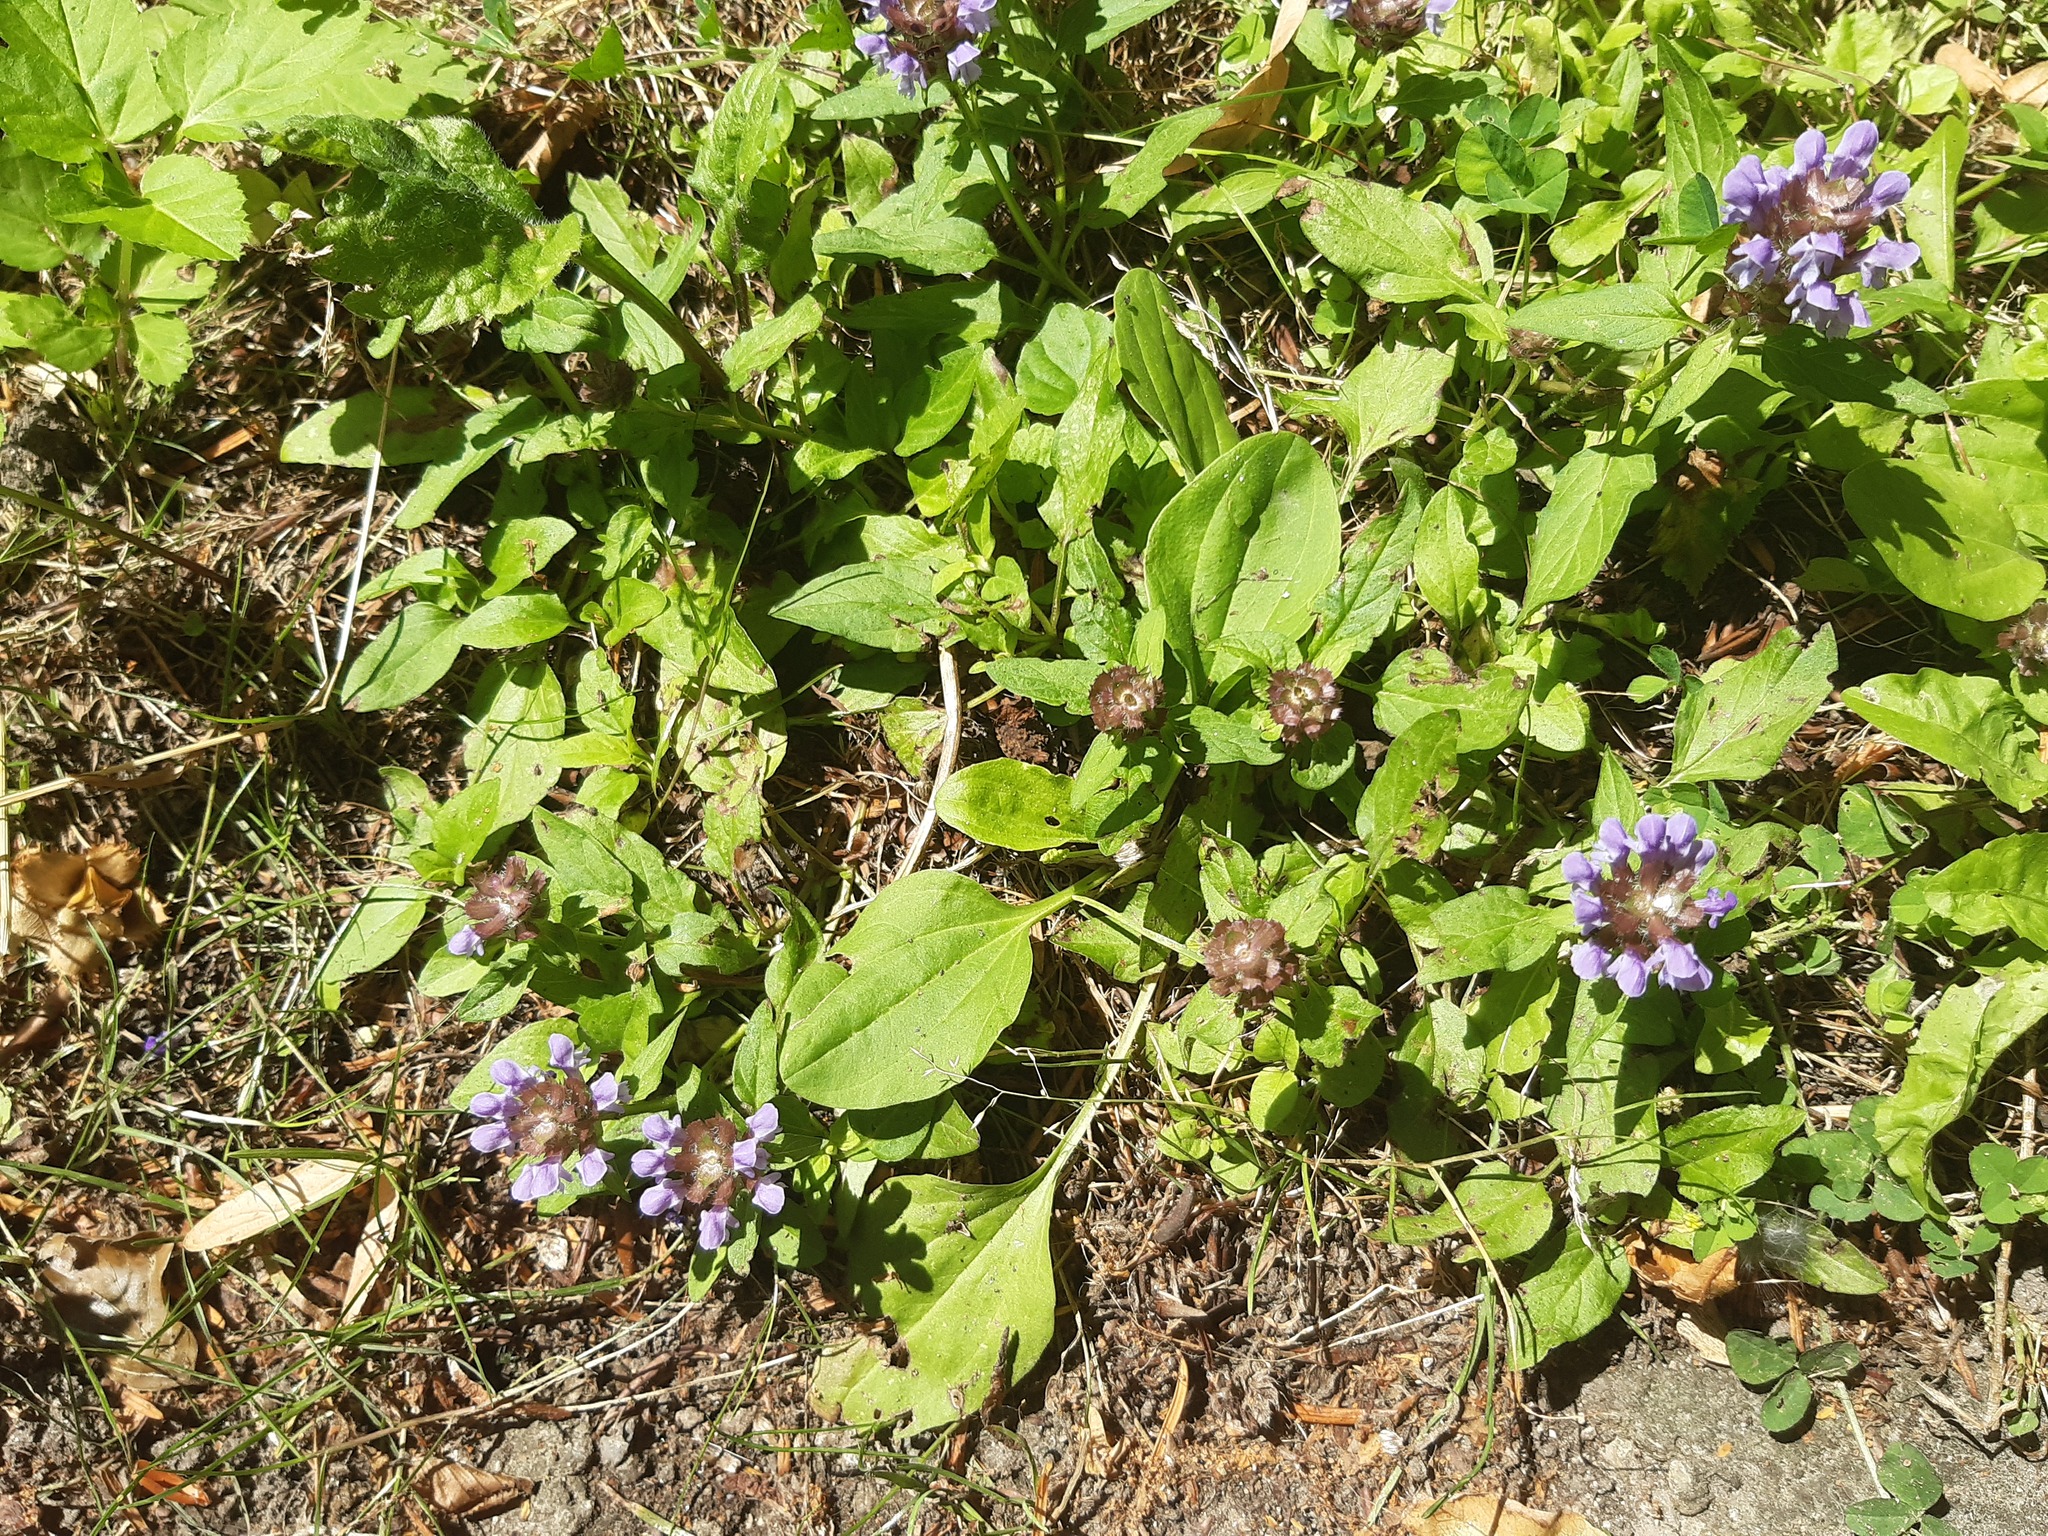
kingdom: Plantae
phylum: Tracheophyta
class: Magnoliopsida
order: Lamiales
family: Lamiaceae
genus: Prunella
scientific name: Prunella vulgaris
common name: Heal-all
